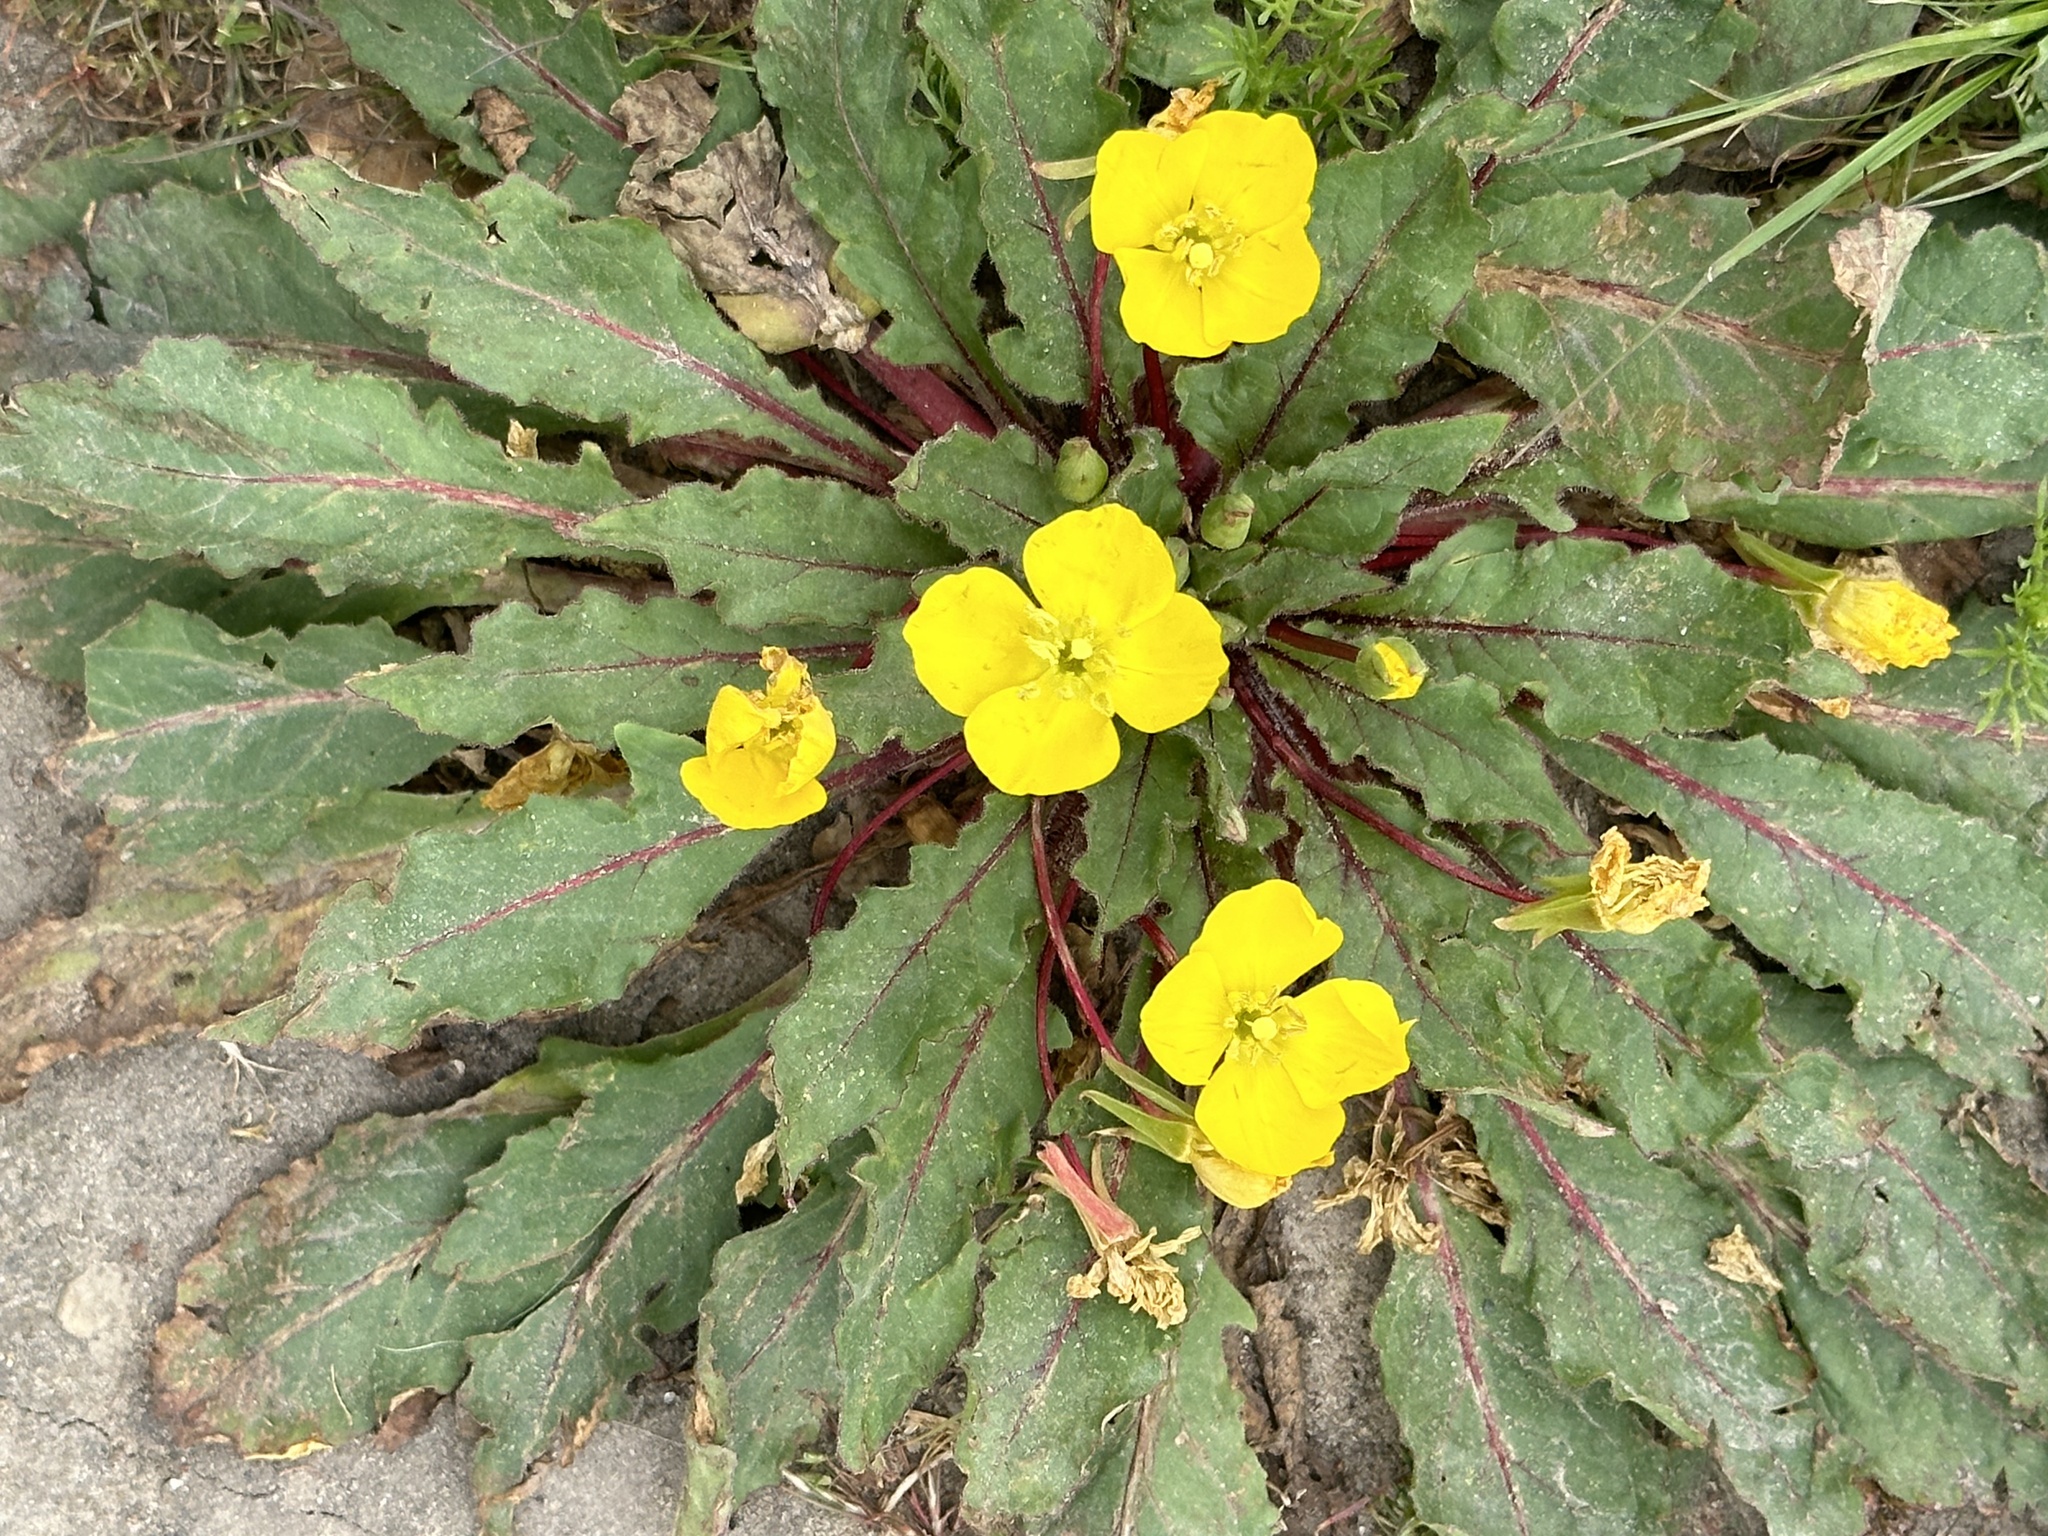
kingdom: Plantae
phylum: Tracheophyta
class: Magnoliopsida
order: Myrtales
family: Onagraceae
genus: Taraxia
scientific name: Taraxia ovata
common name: Goldeneggs
